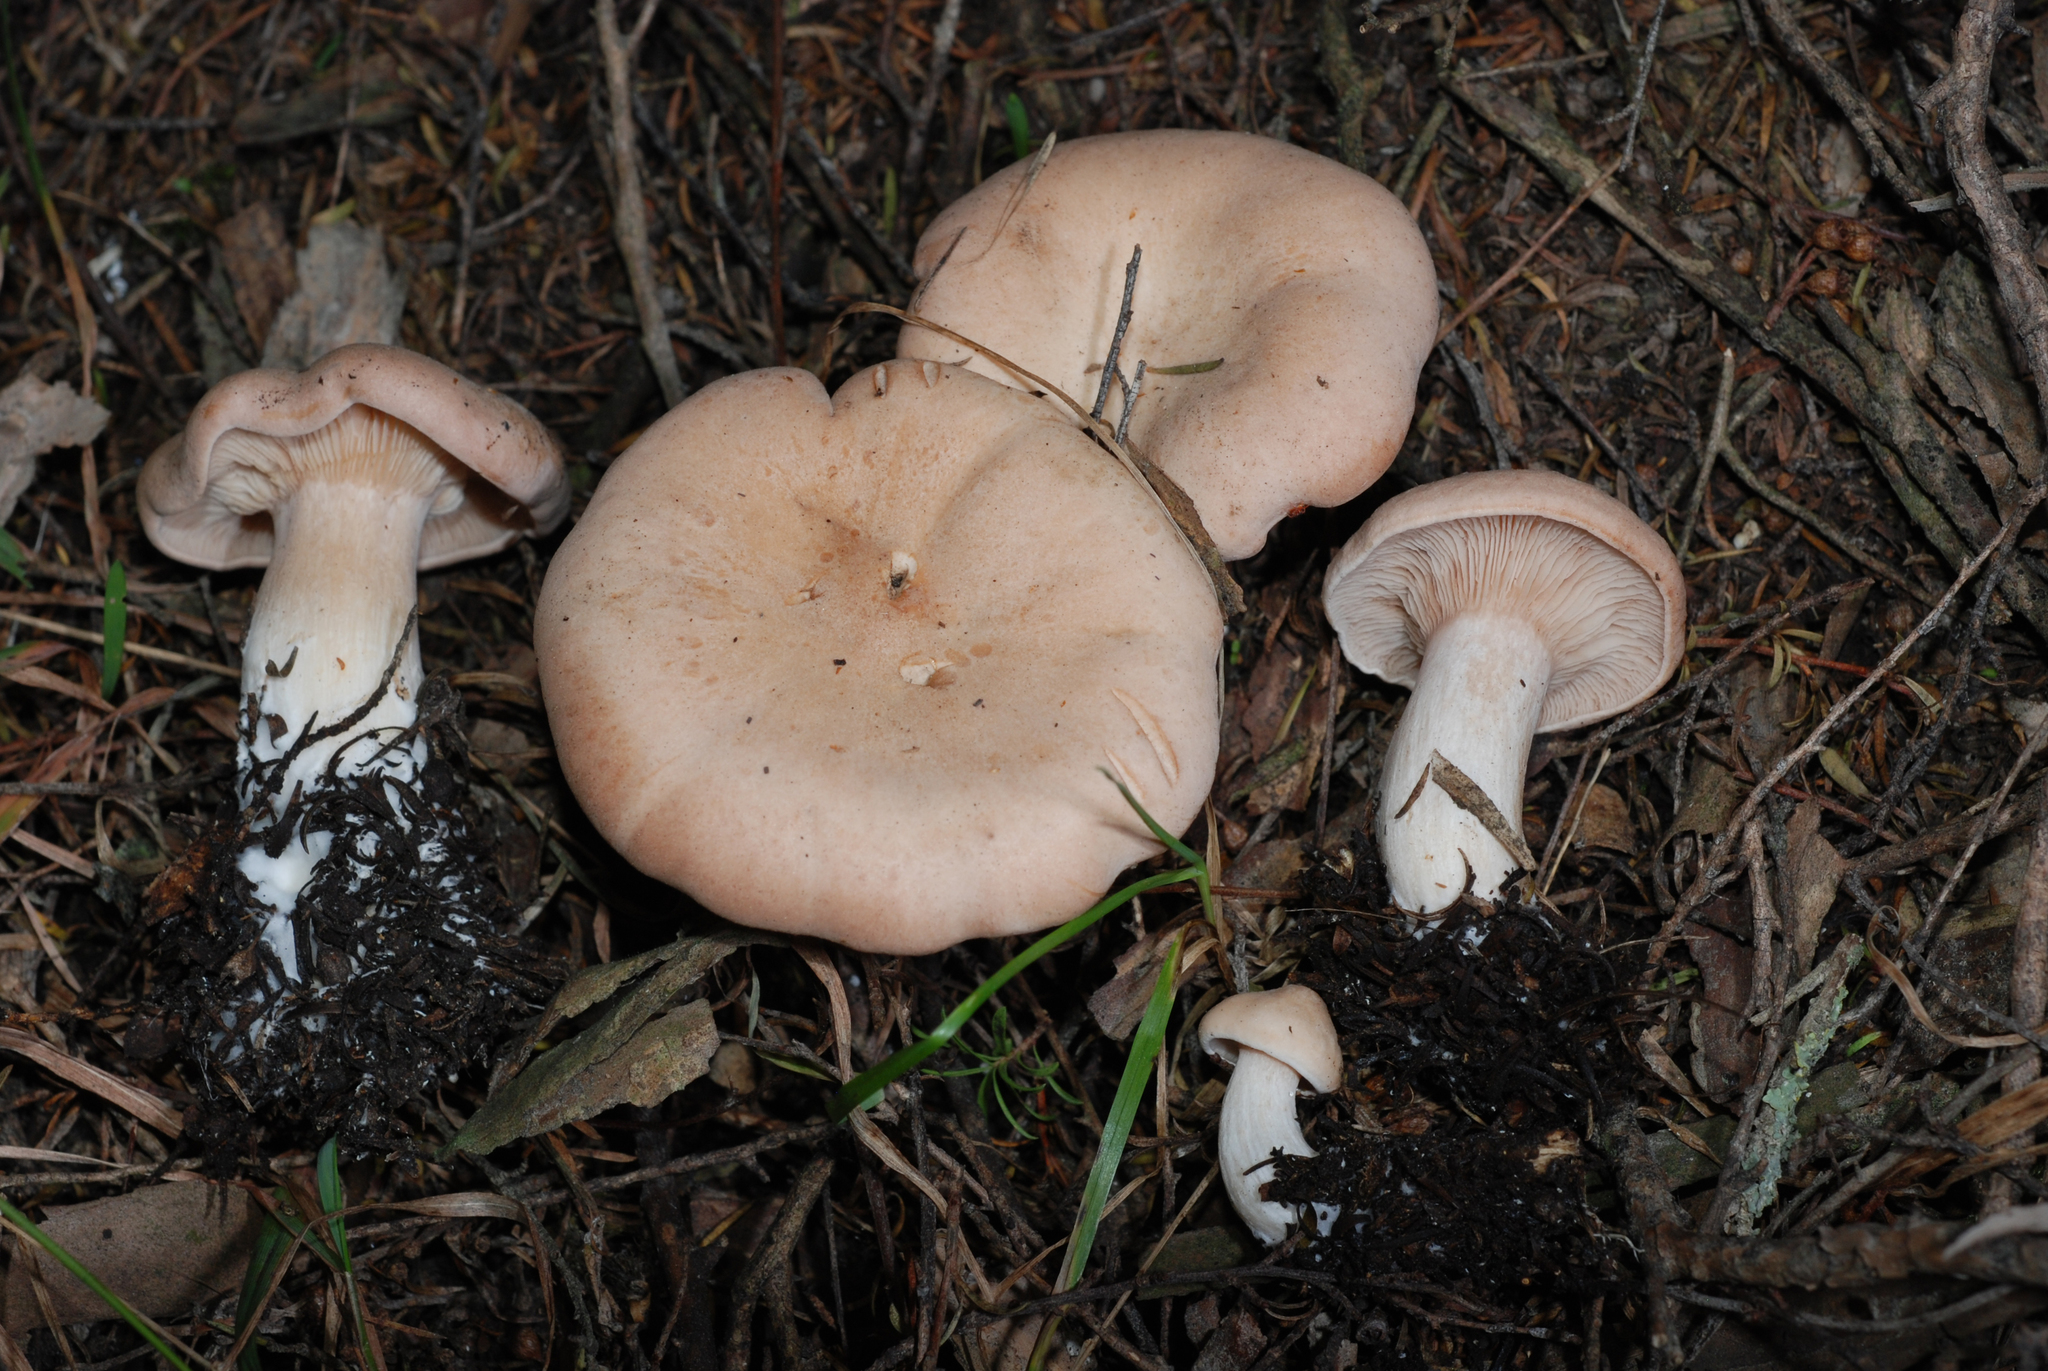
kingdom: Fungi
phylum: Basidiomycota
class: Agaricomycetes
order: Agaricales
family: Entolomataceae
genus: Clitopilus
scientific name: Clitopilus piperitus
